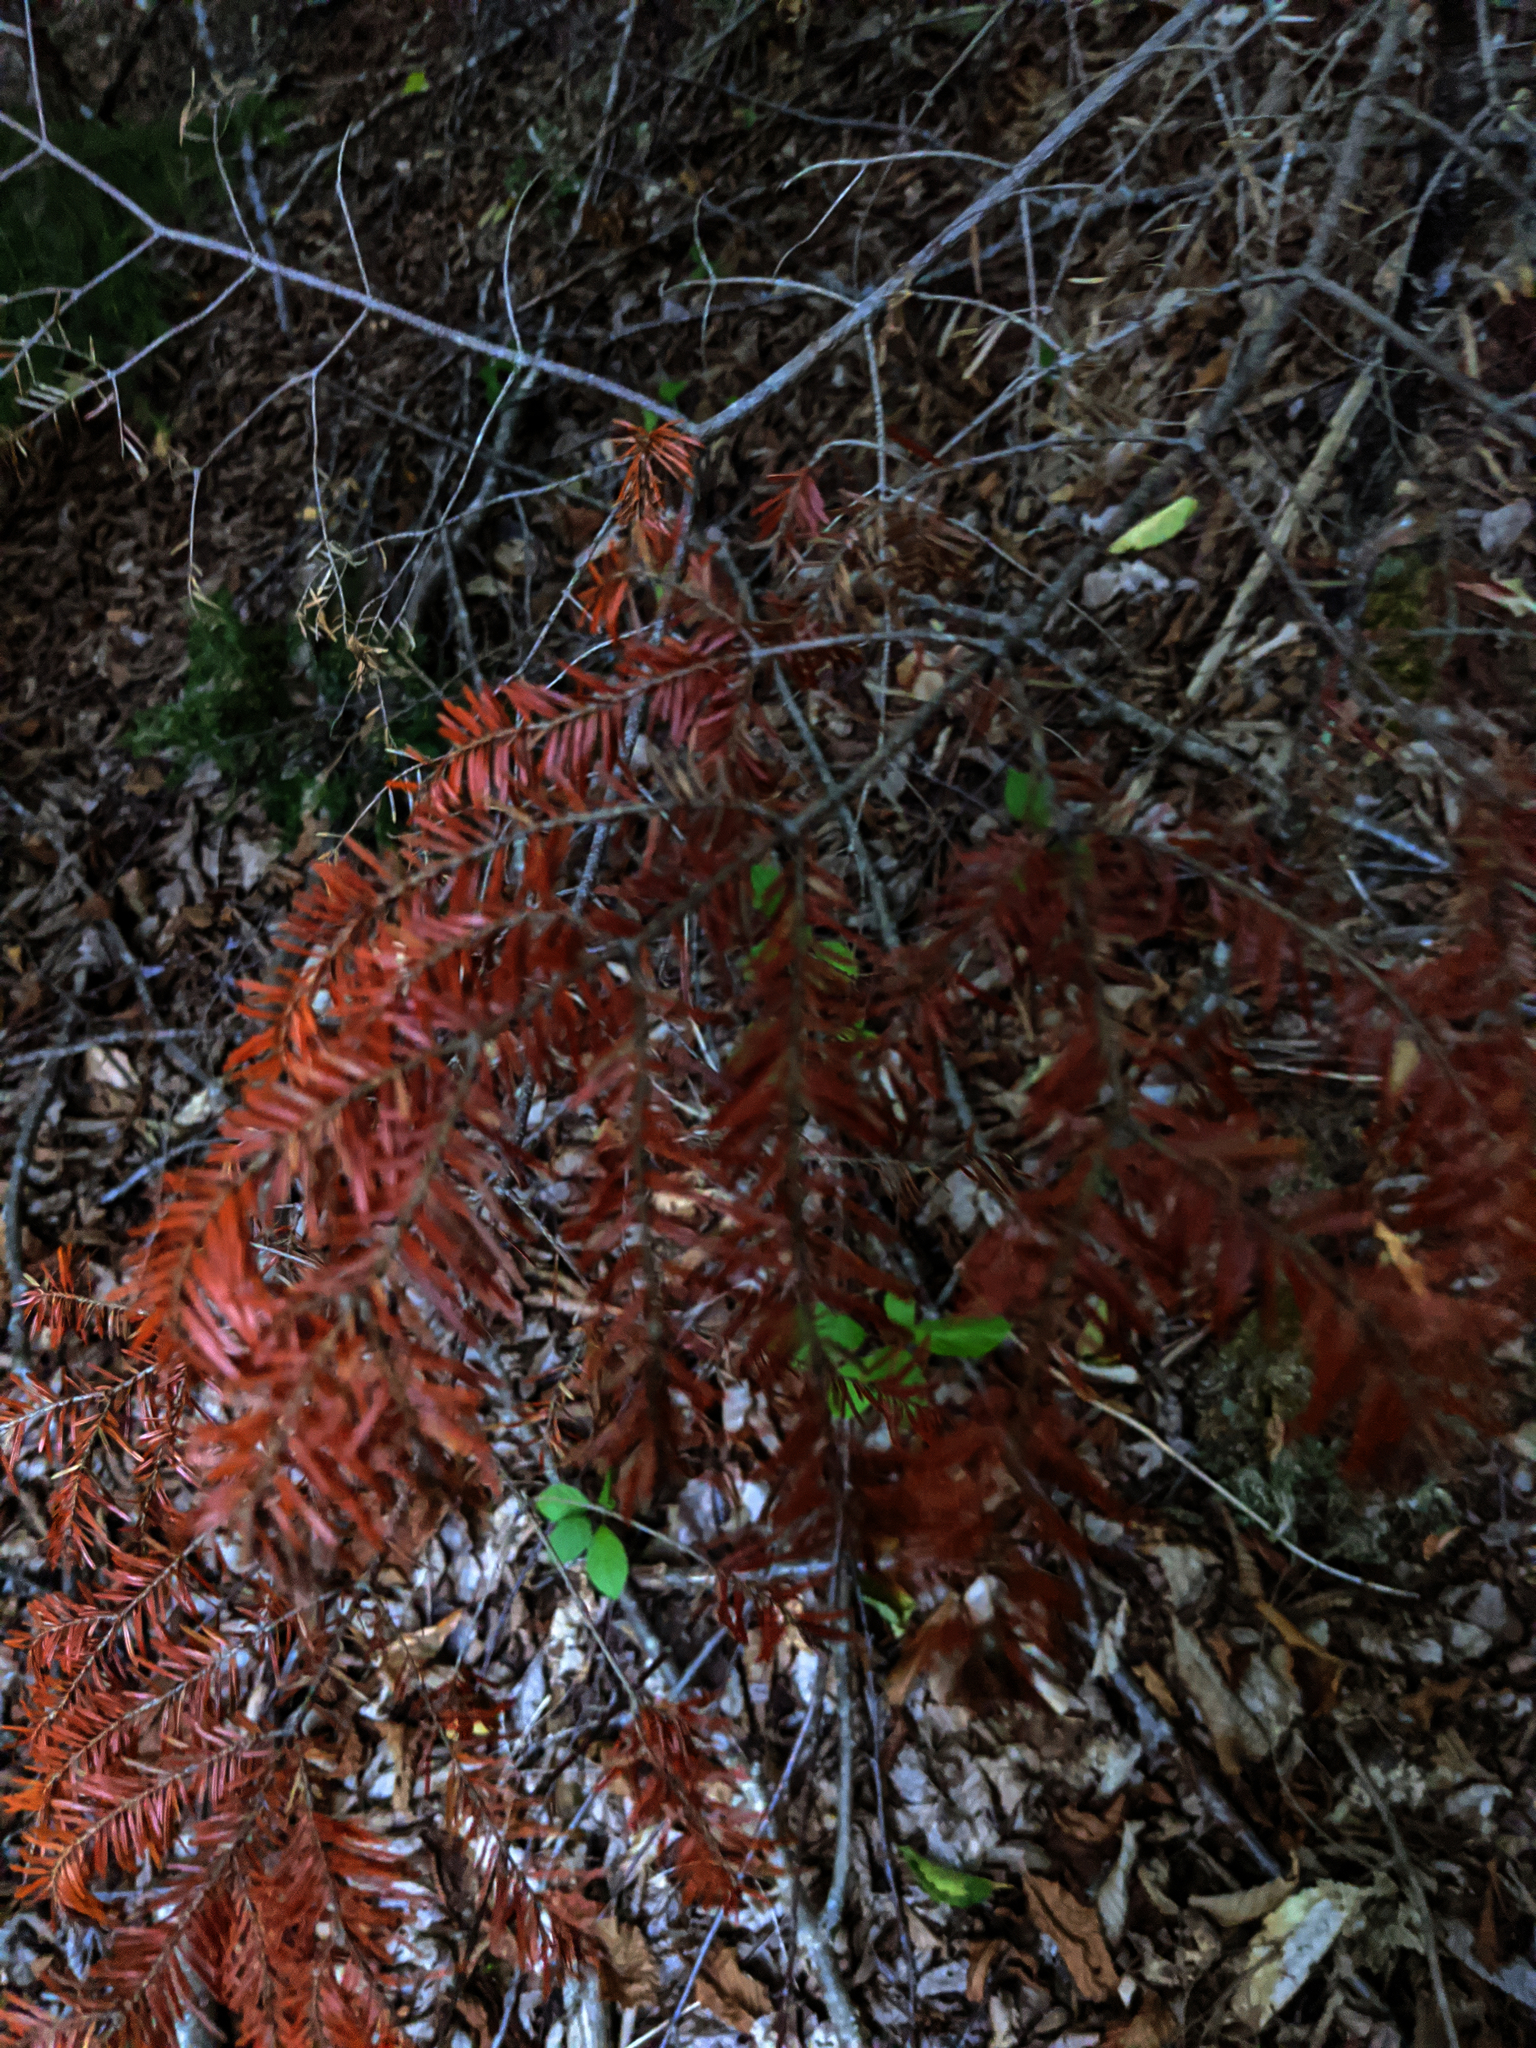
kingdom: Plantae
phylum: Tracheophyta
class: Pinopsida
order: Pinales
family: Pinaceae
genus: Tsuga
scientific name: Tsuga canadensis
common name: Eastern hemlock
